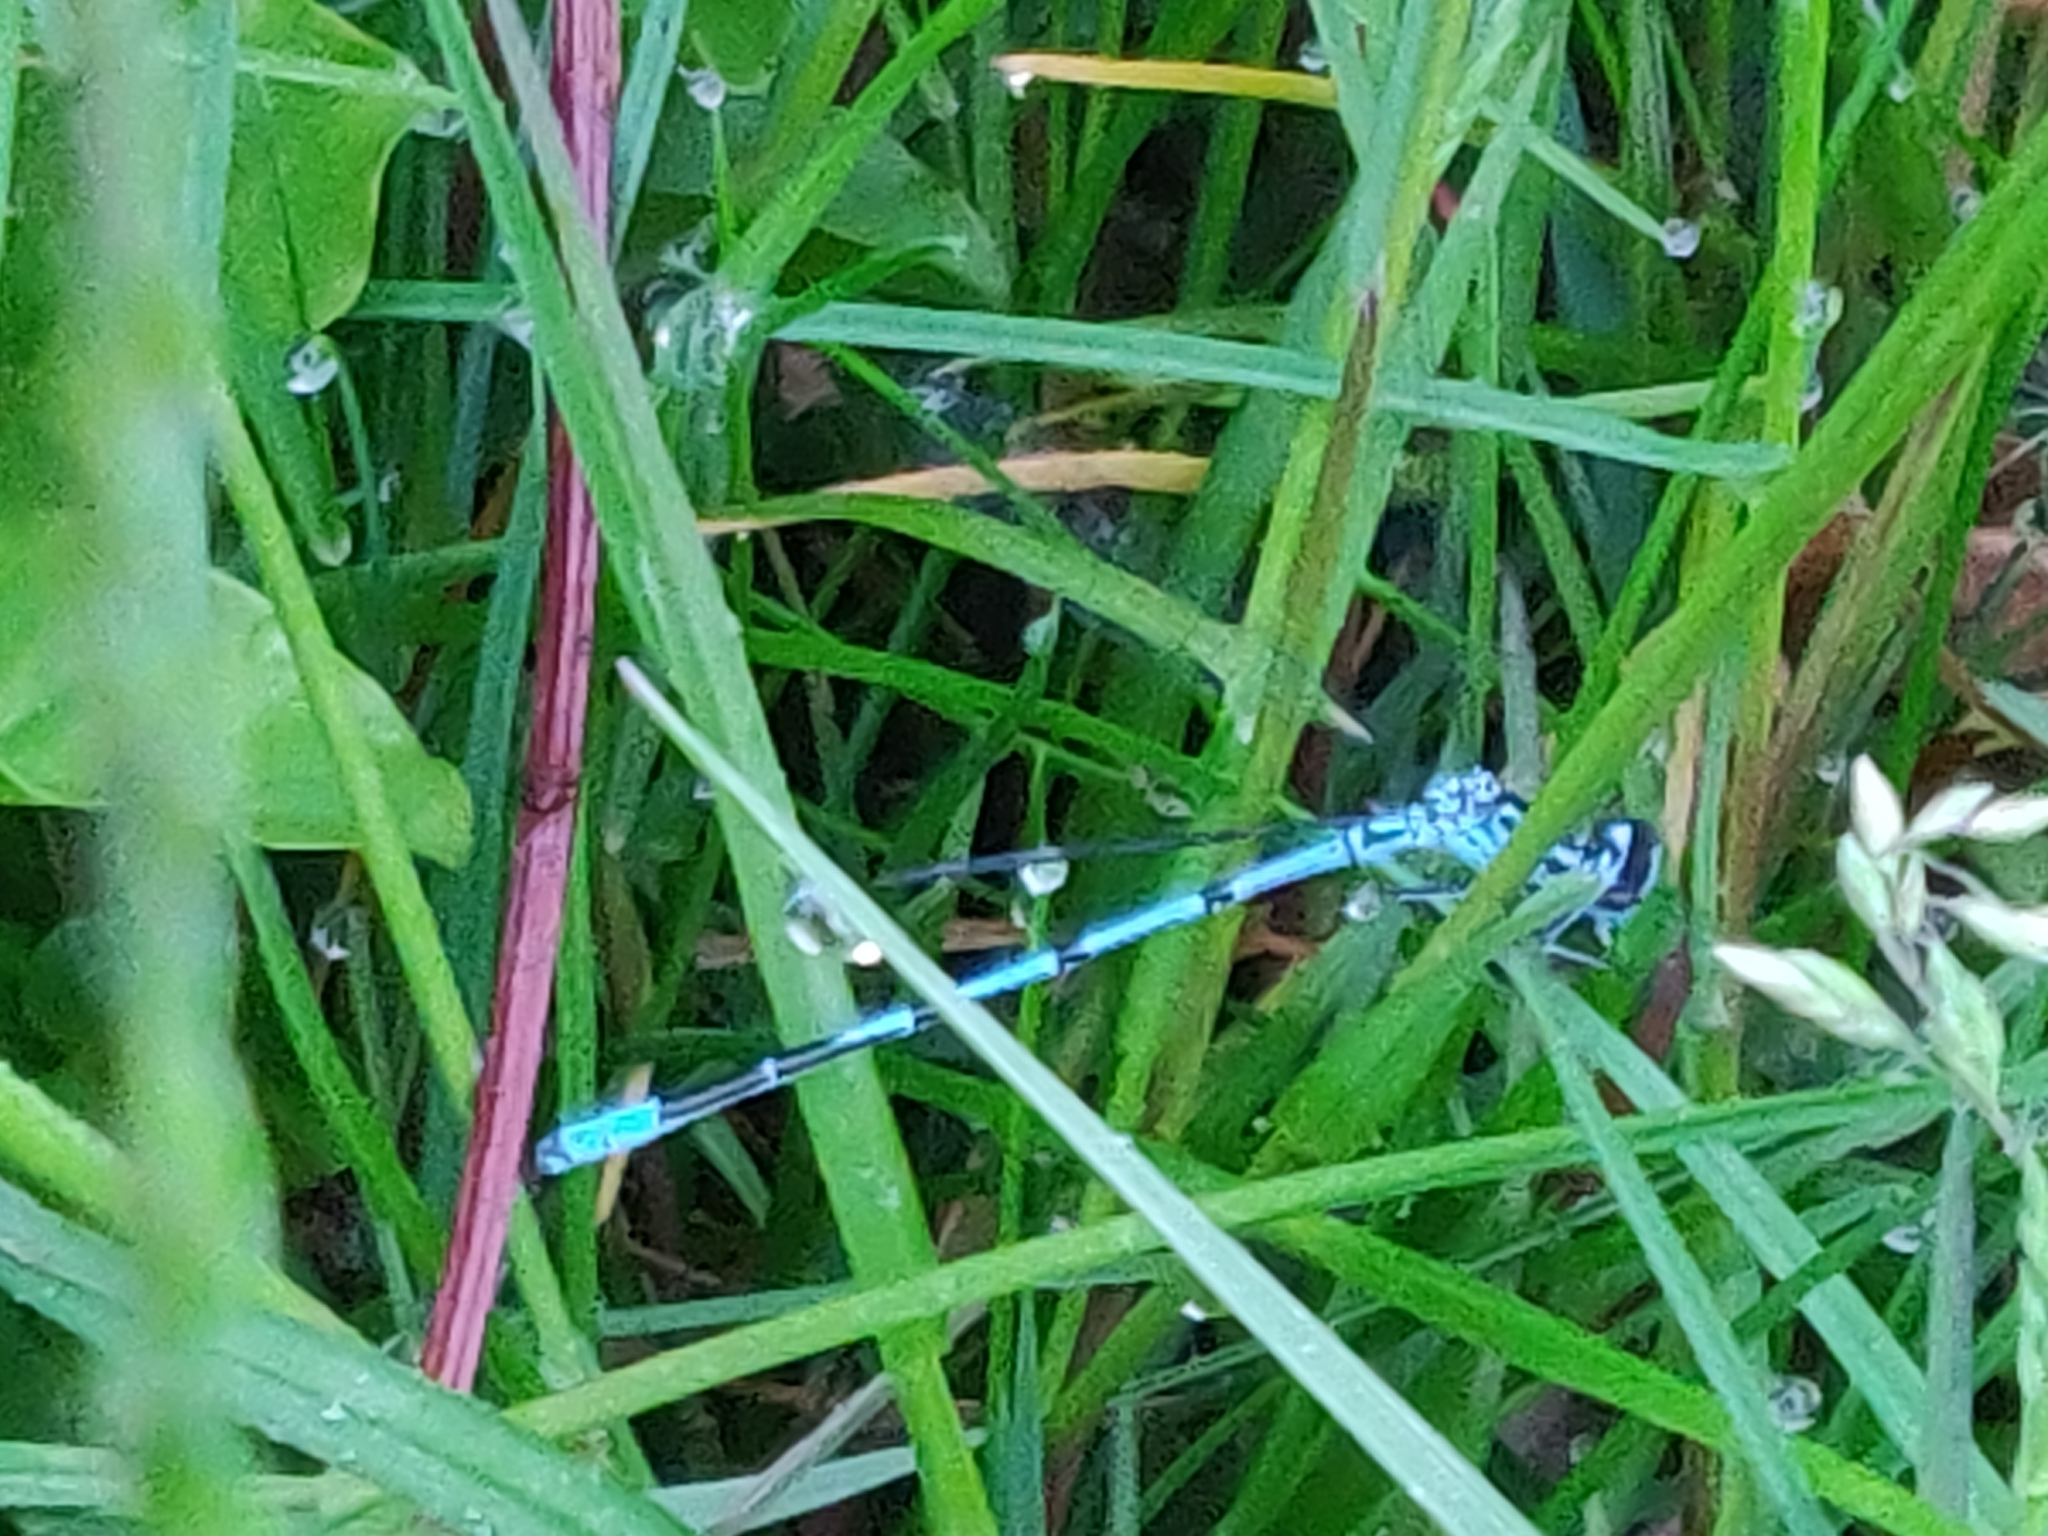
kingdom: Animalia
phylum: Arthropoda
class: Insecta
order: Odonata
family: Coenagrionidae
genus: Coenagrion
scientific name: Coenagrion puella
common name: Azure damselfly
